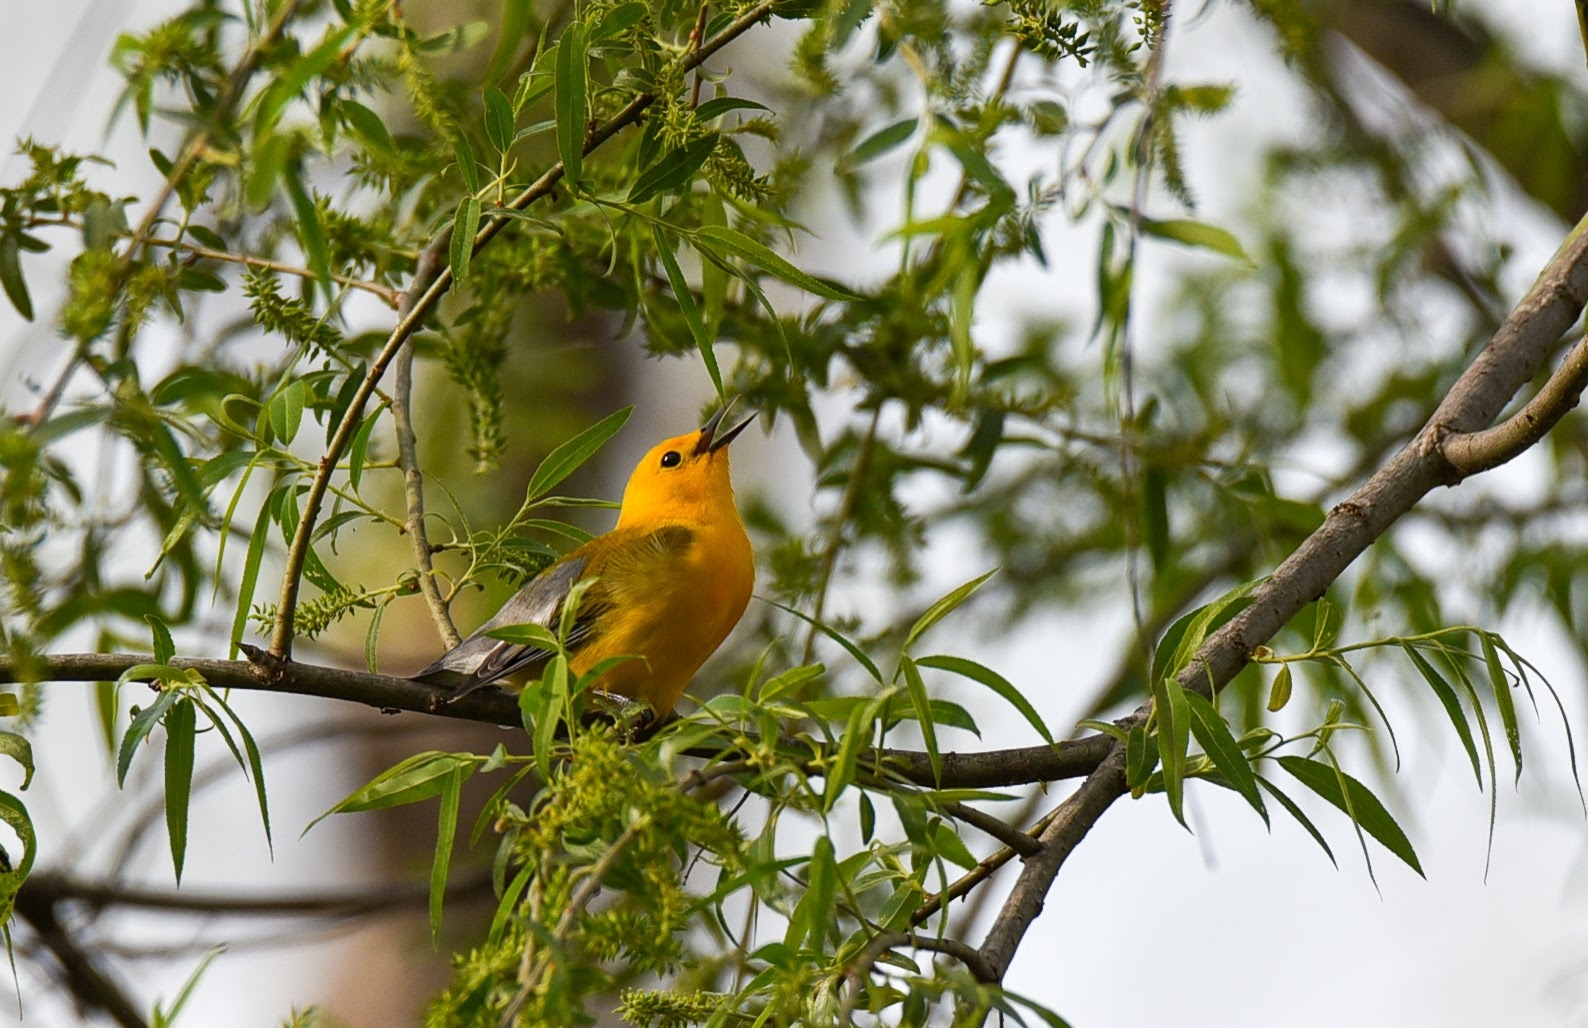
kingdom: Animalia
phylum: Chordata
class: Aves
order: Passeriformes
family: Parulidae
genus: Protonotaria
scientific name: Protonotaria citrea
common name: Prothonotary warbler
